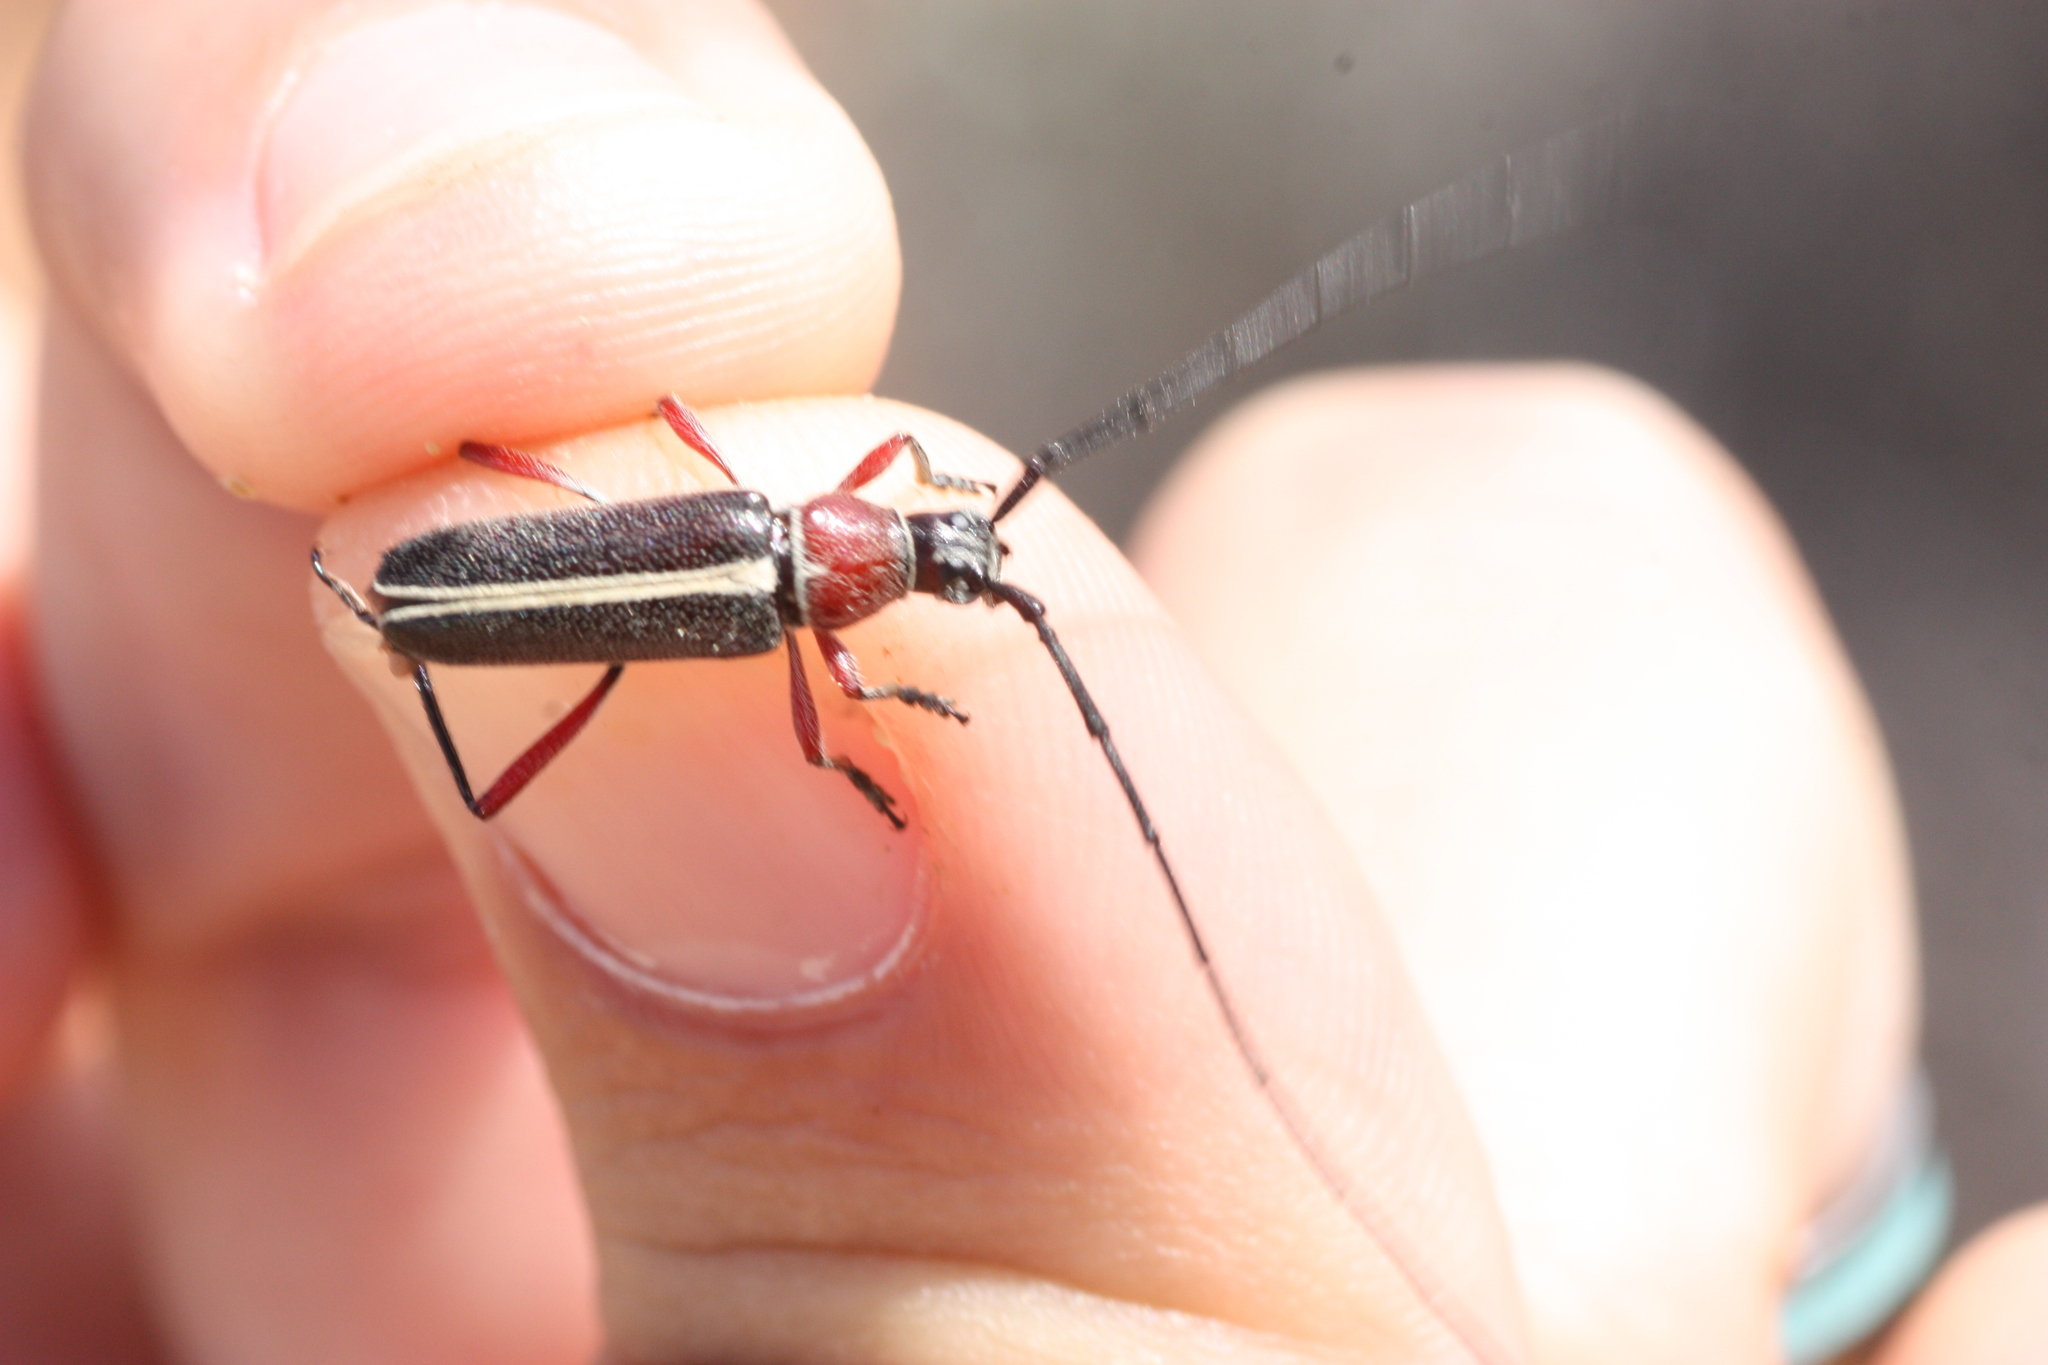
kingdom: Animalia
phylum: Arthropoda
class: Insecta
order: Coleoptera
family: Cerambycidae
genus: Plionoma
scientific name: Plionoma suturalis
